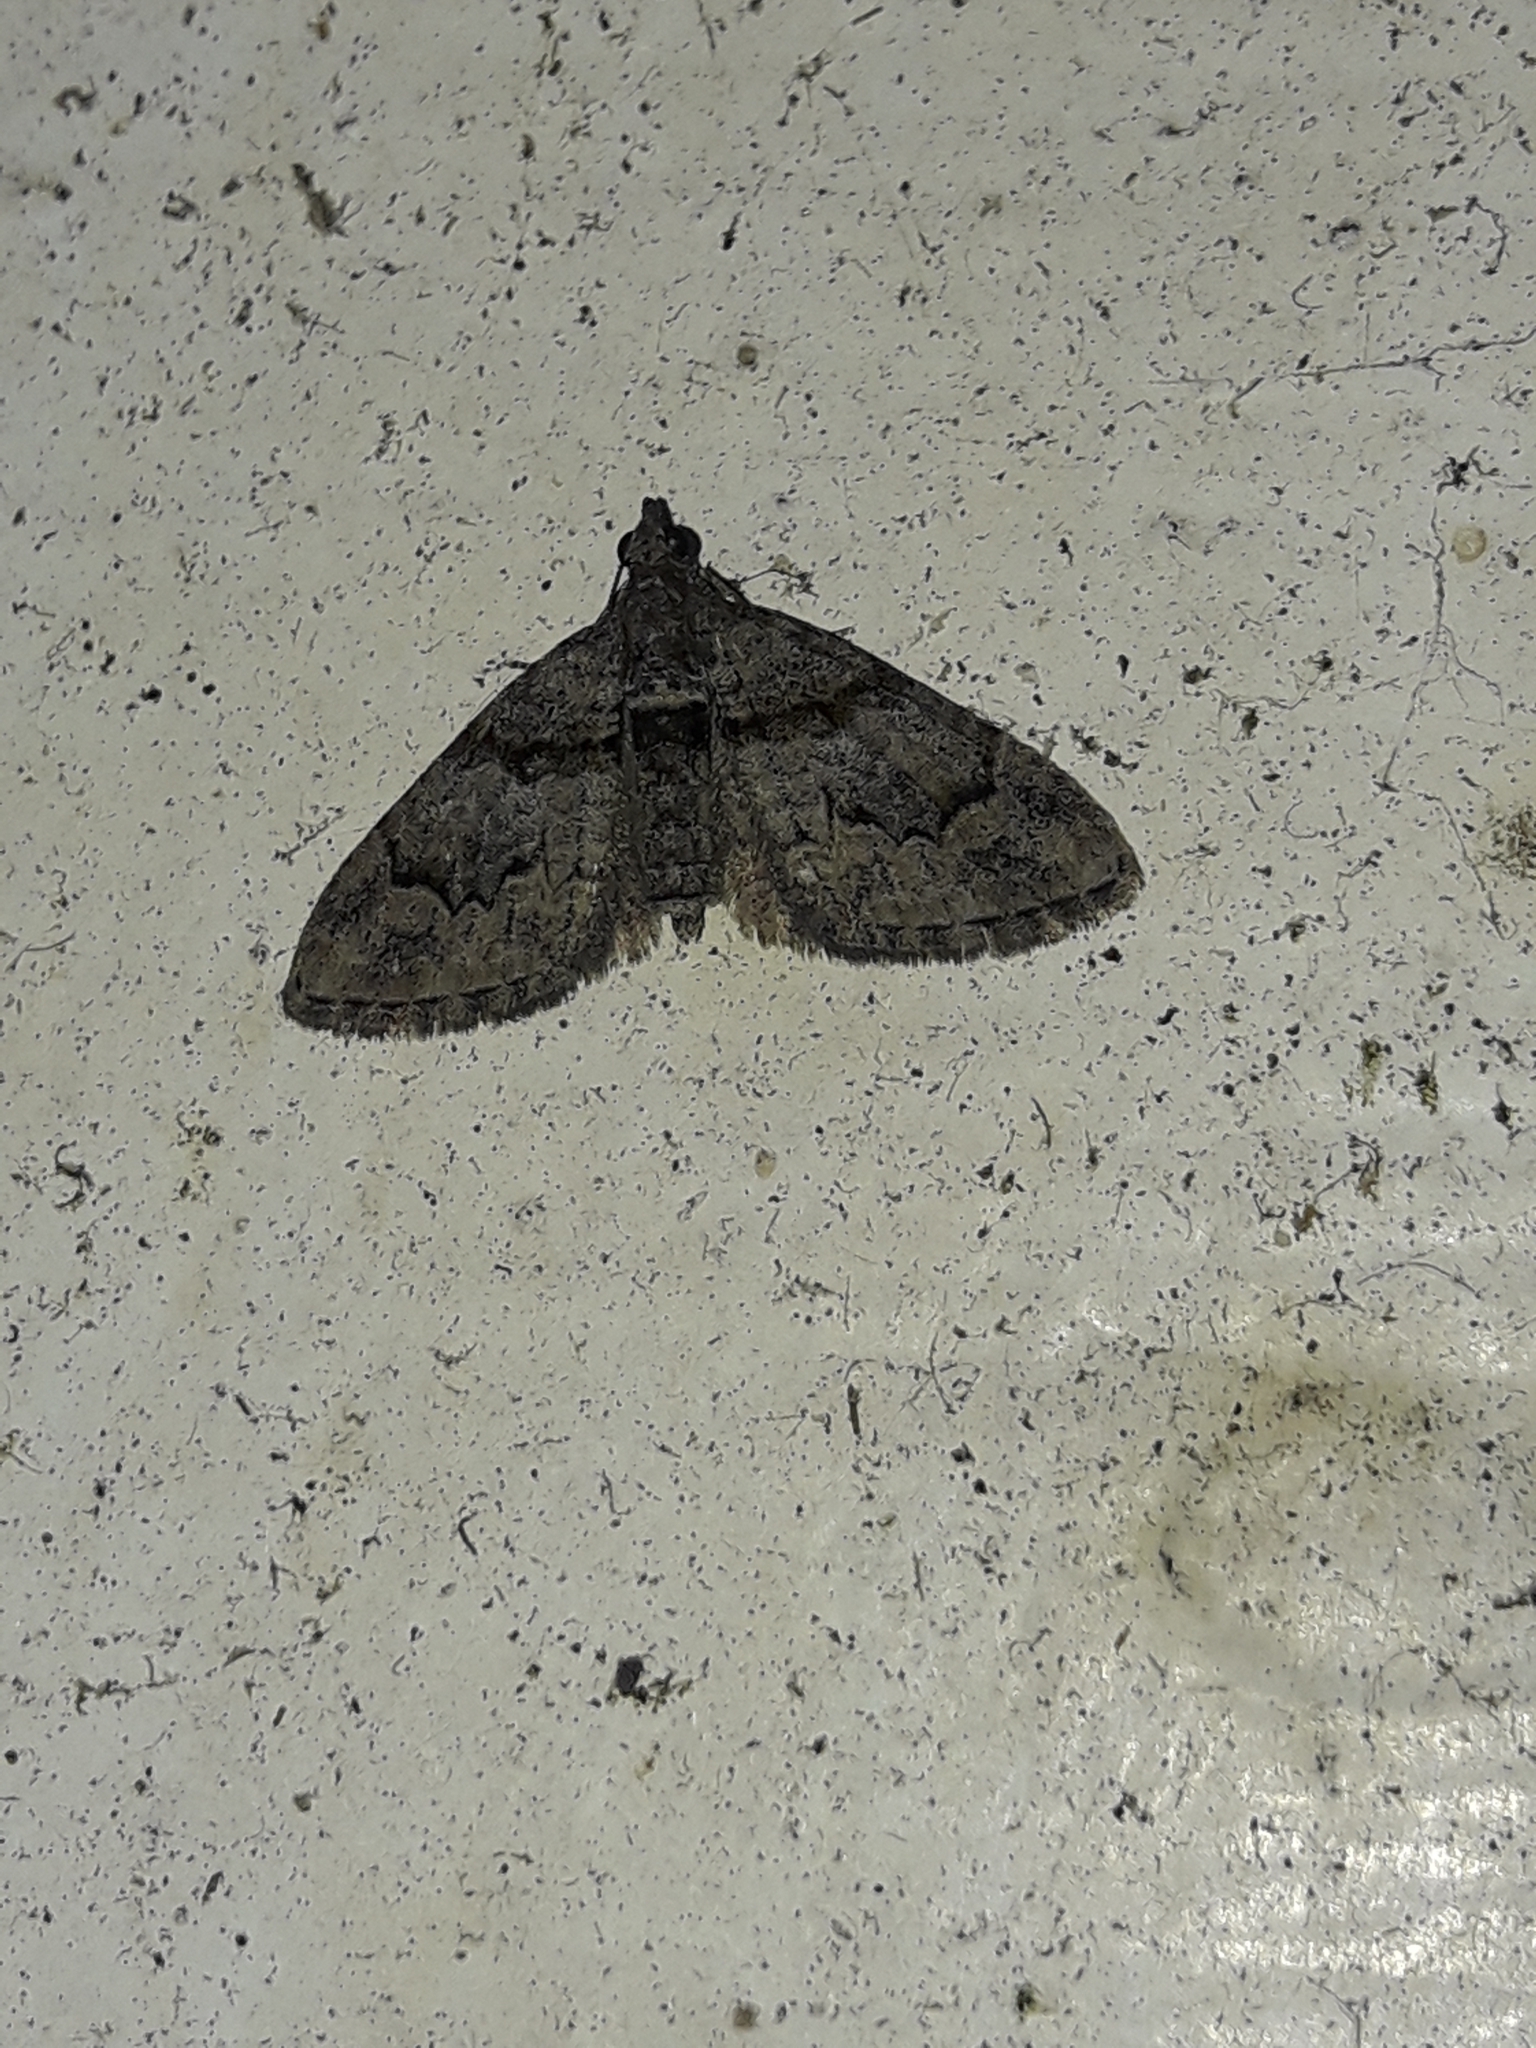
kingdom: Animalia
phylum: Arthropoda
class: Insecta
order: Lepidoptera
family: Geometridae
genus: Phrissogonus
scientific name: Phrissogonus laticostata
